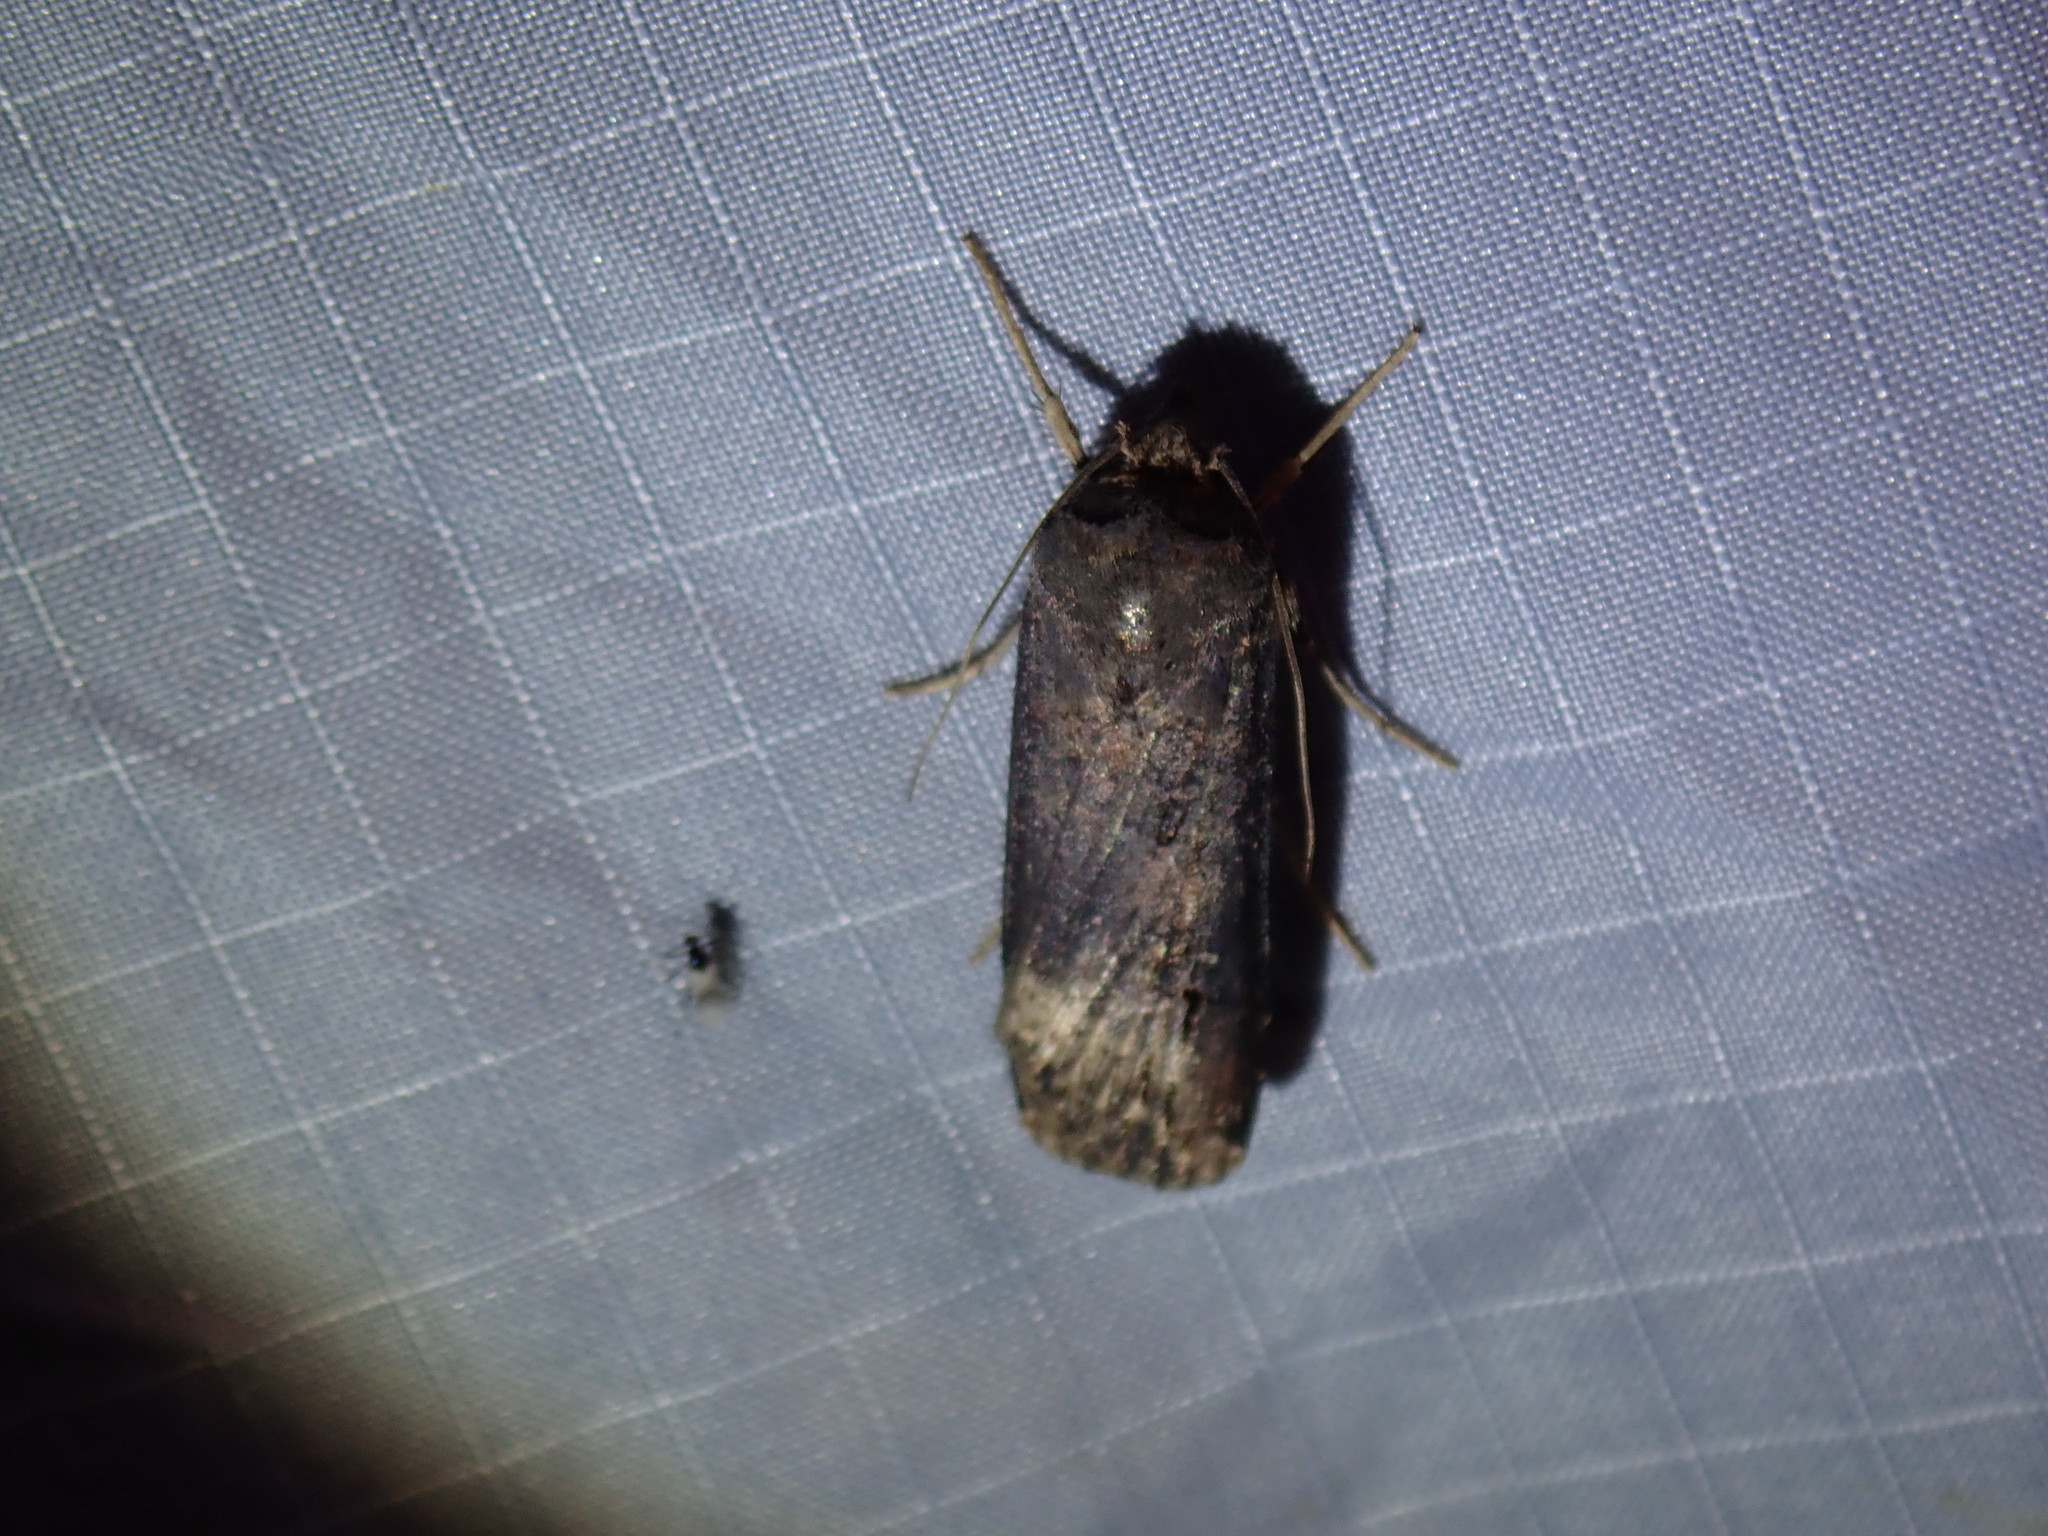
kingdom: Animalia
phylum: Arthropoda
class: Insecta
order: Lepidoptera
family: Noctuidae
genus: Agrotis
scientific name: Agrotis ipsilon
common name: Dark sword-grass
